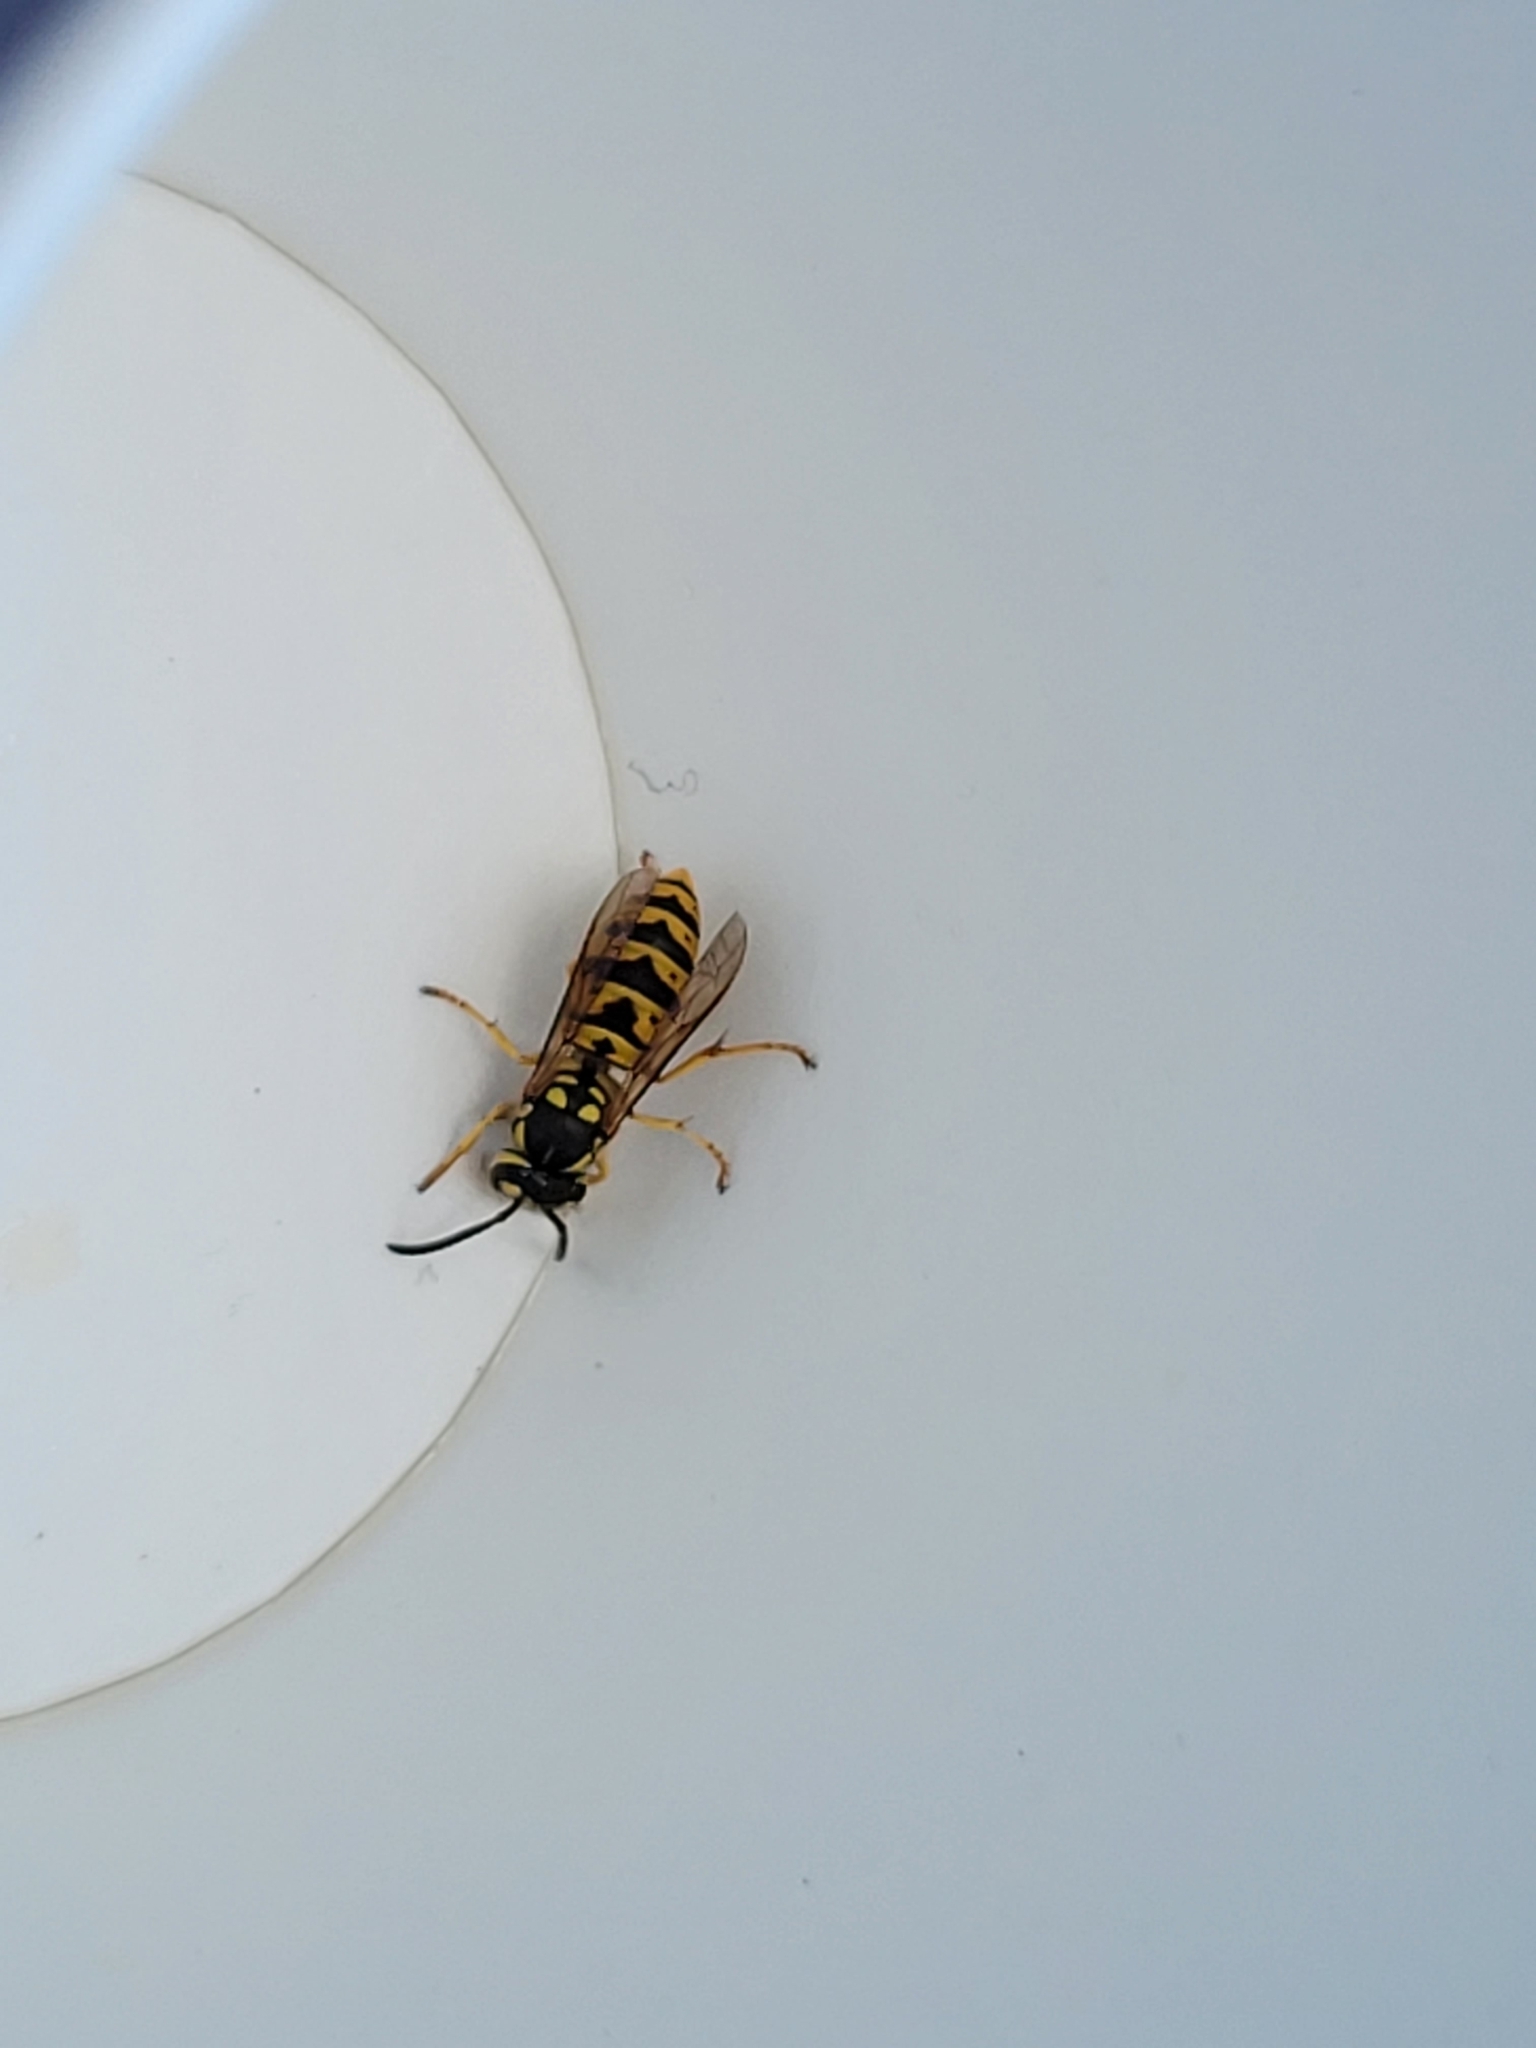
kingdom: Animalia
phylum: Arthropoda
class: Insecta
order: Hymenoptera
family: Vespidae
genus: Vespula
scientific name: Vespula germanica
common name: German wasp
